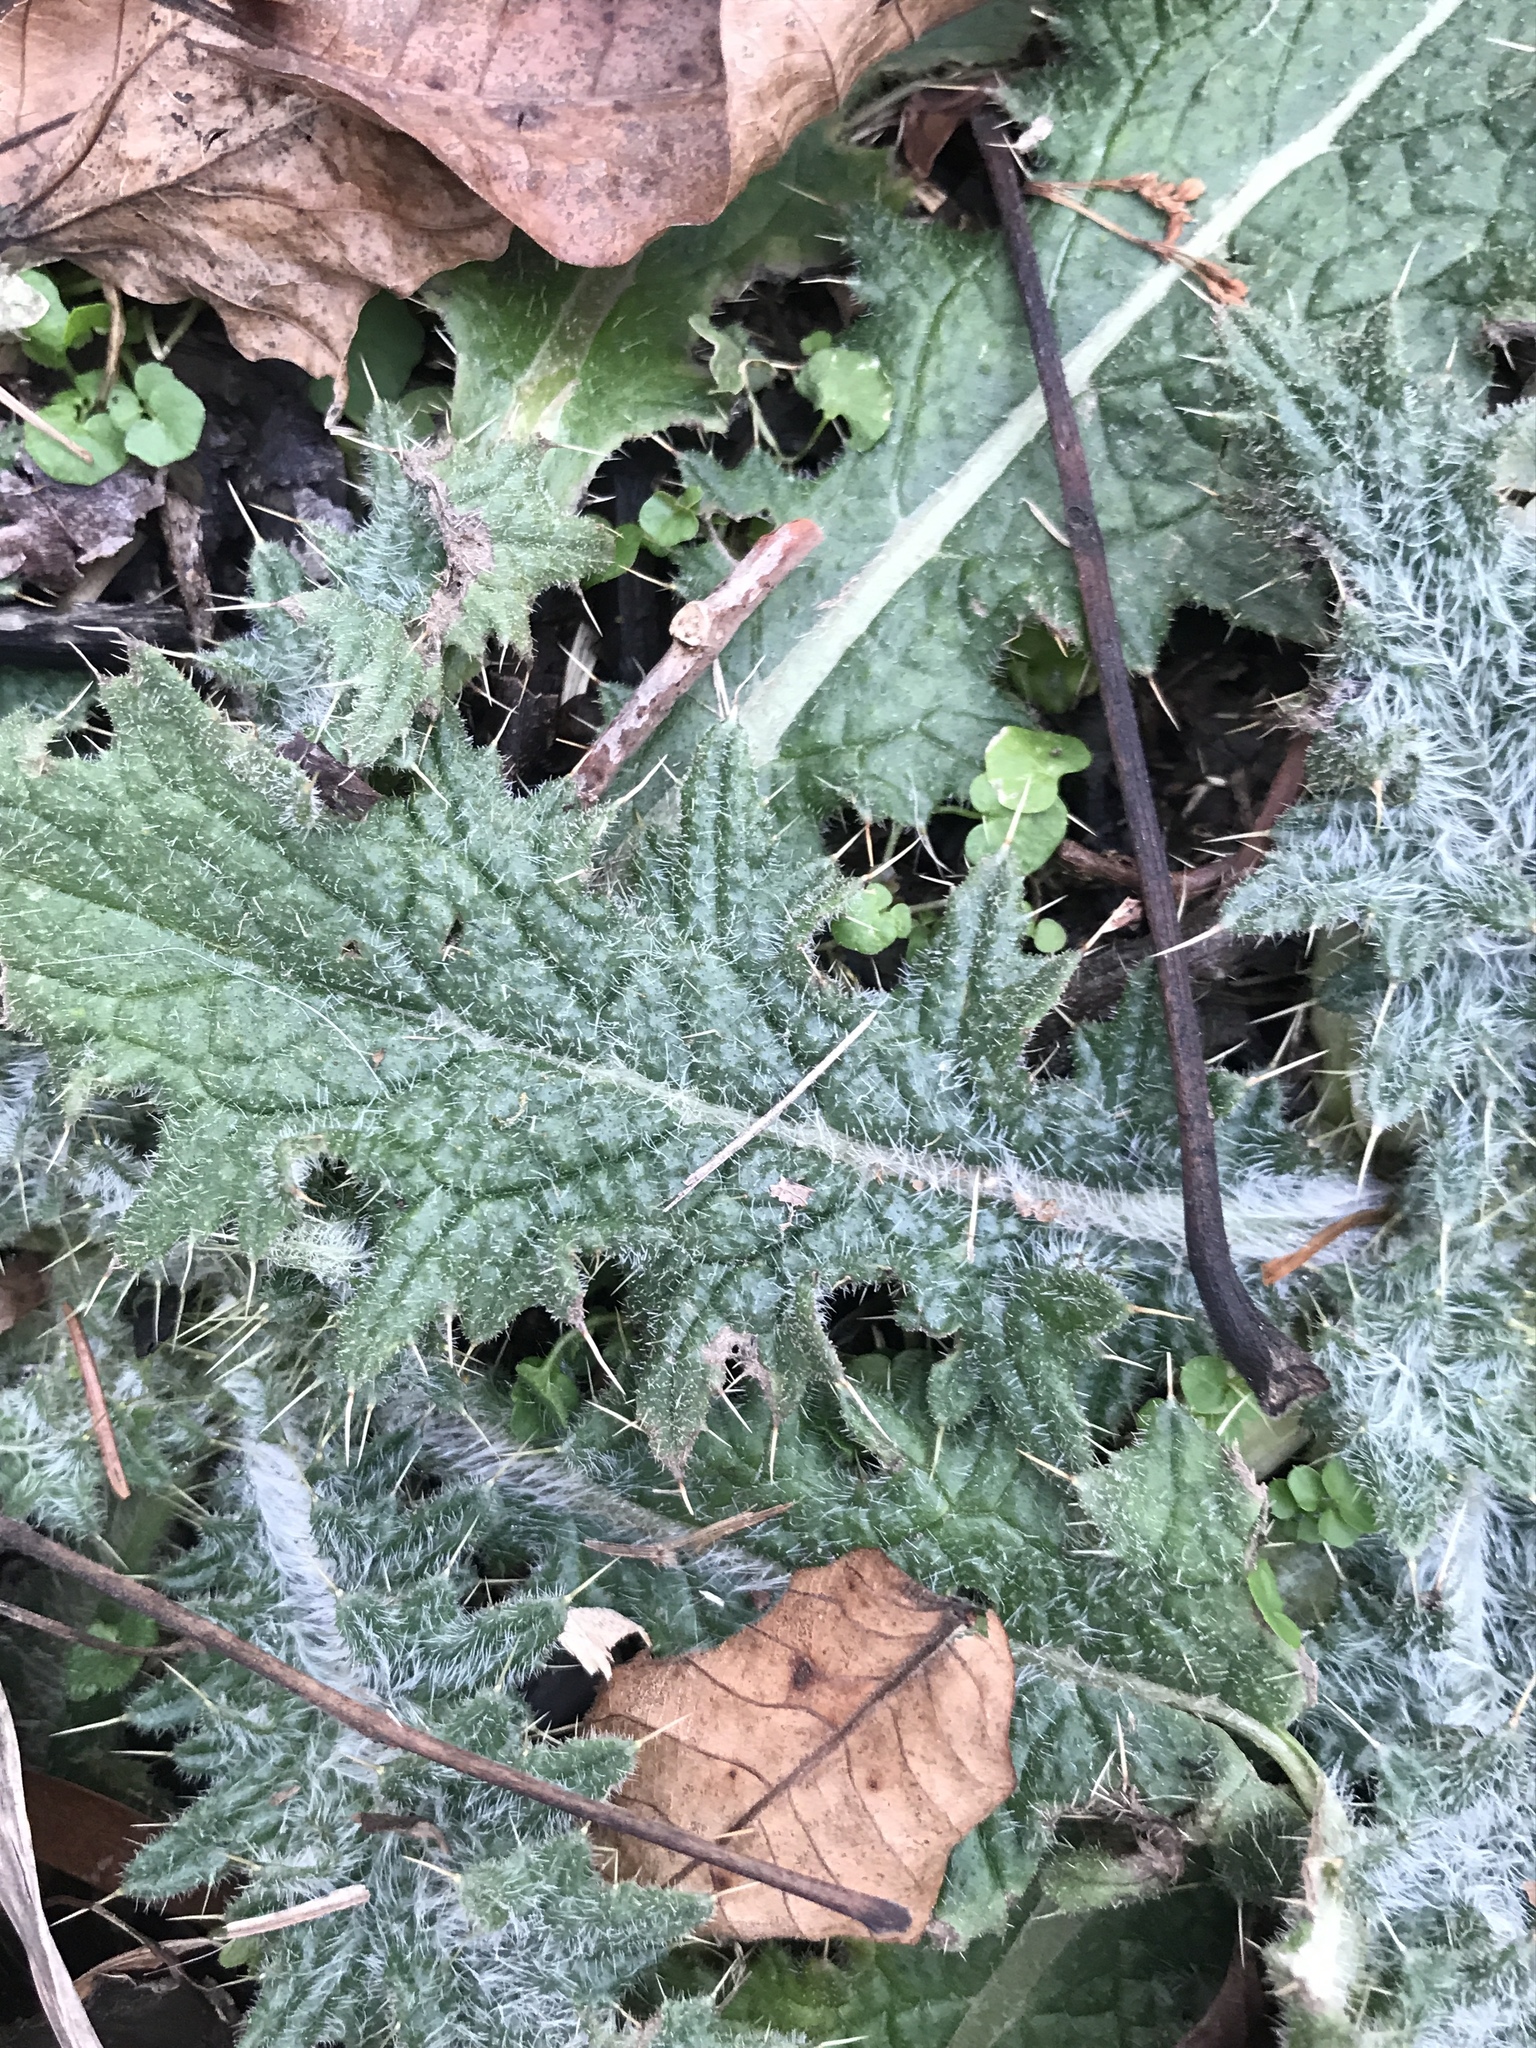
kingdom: Plantae
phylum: Tracheophyta
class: Magnoliopsida
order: Asterales
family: Asteraceae
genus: Cirsium
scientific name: Cirsium vulgare
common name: Bull thistle
